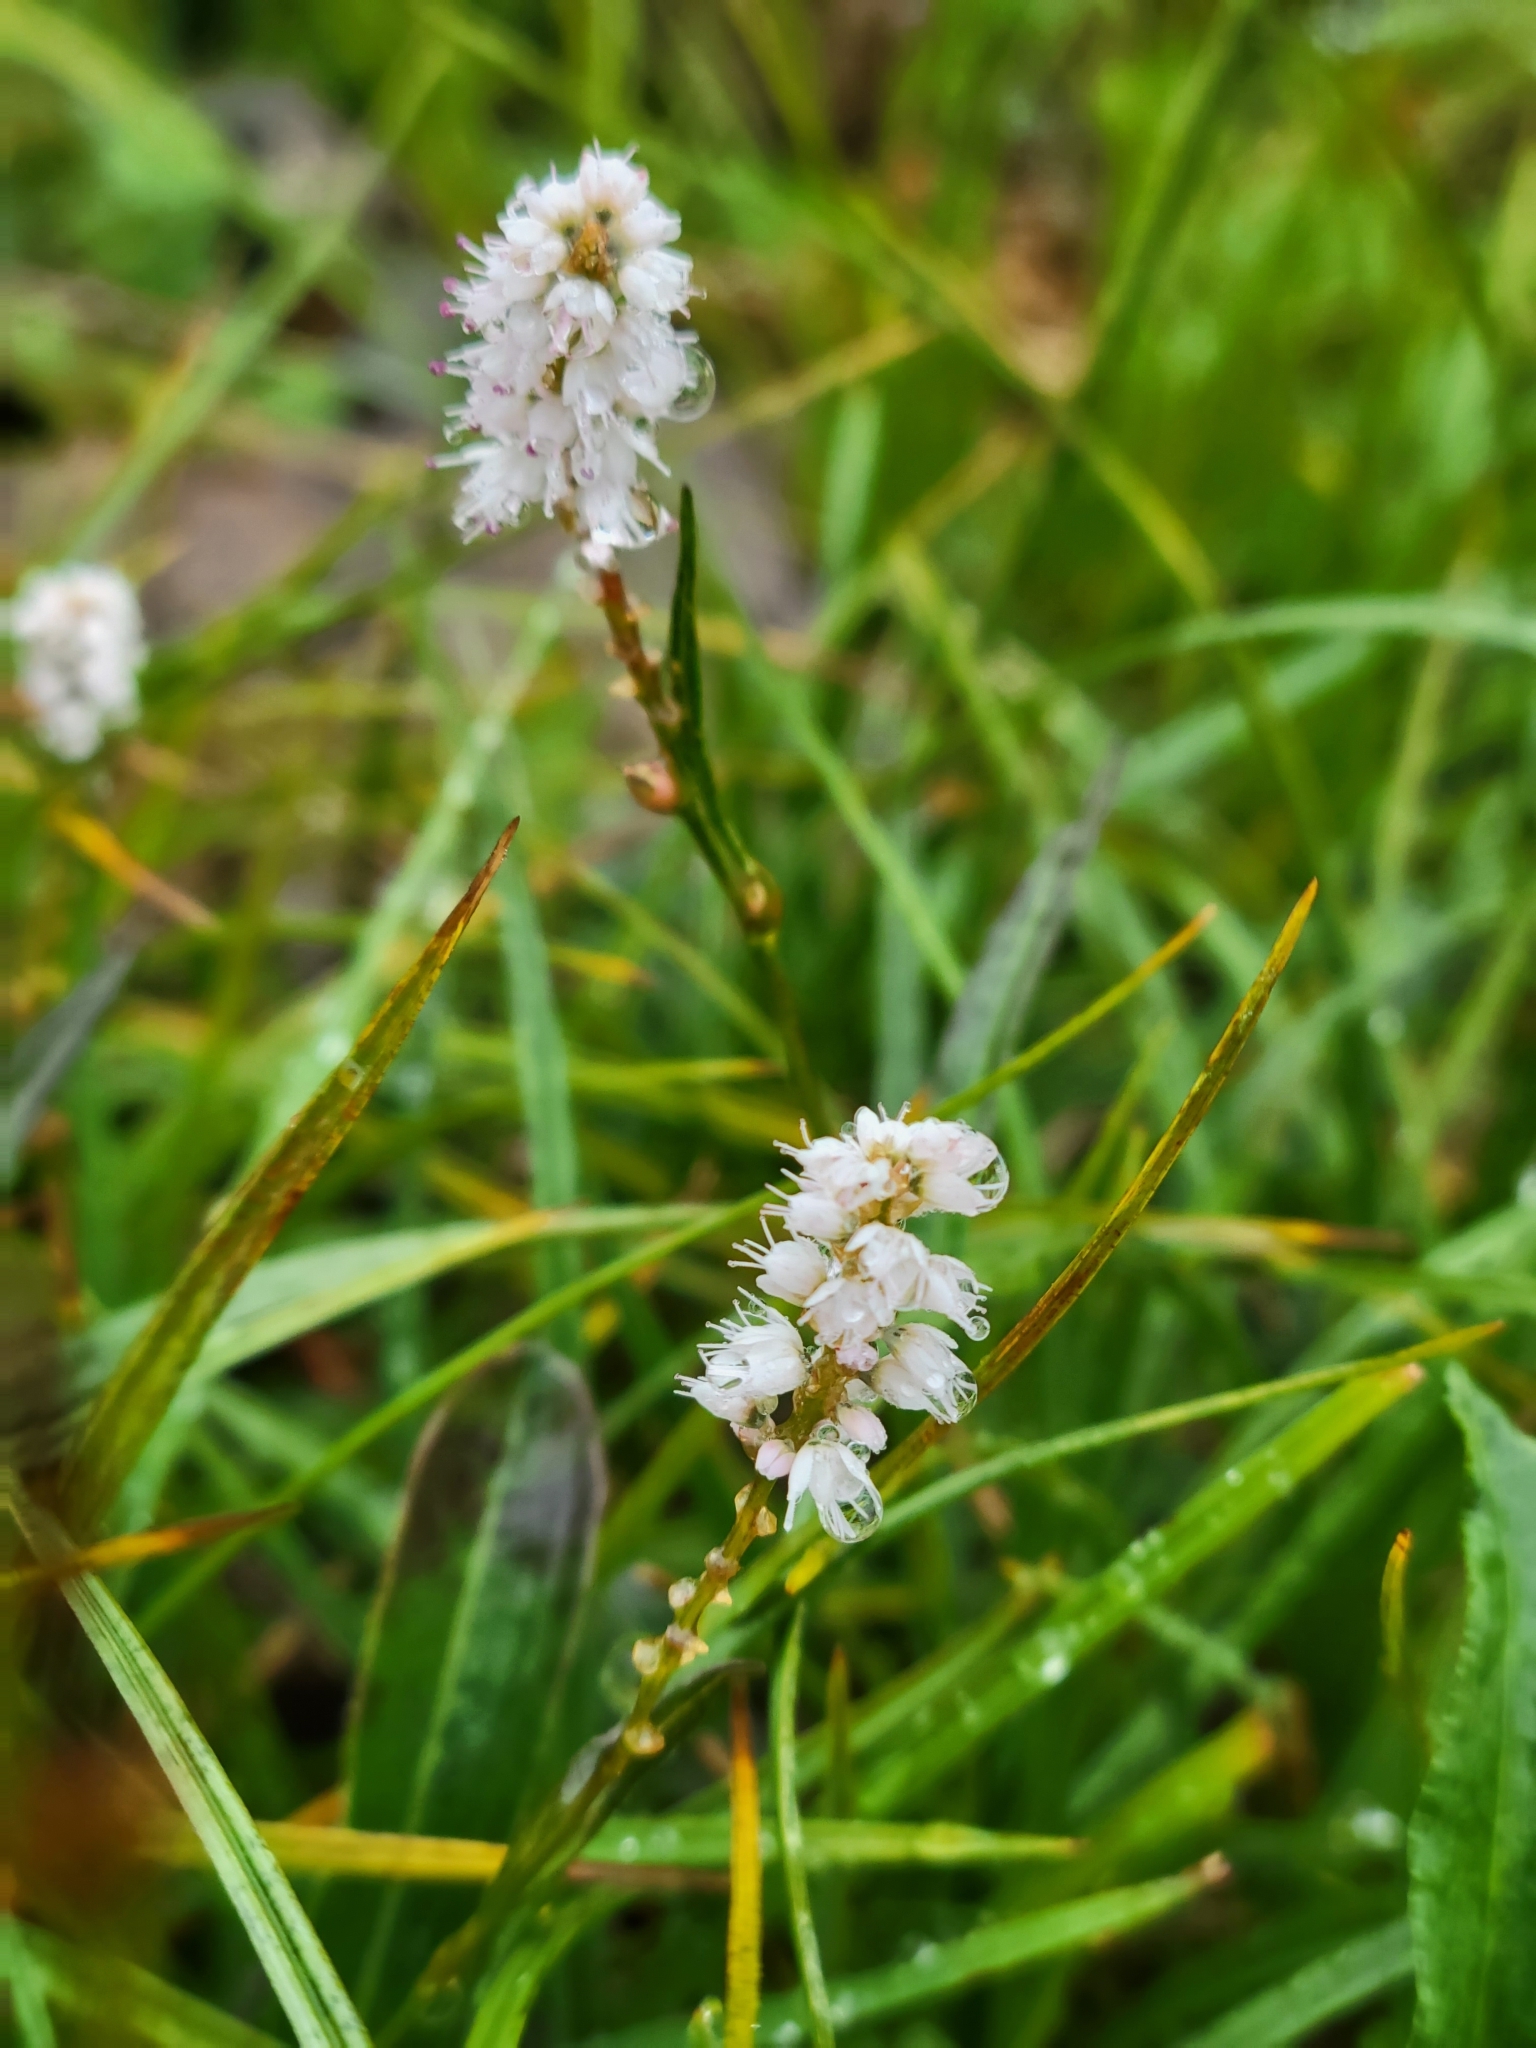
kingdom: Plantae
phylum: Tracheophyta
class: Magnoliopsida
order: Caryophyllales
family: Polygonaceae
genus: Bistorta
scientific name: Bistorta vivipara
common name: Alpine bistort
